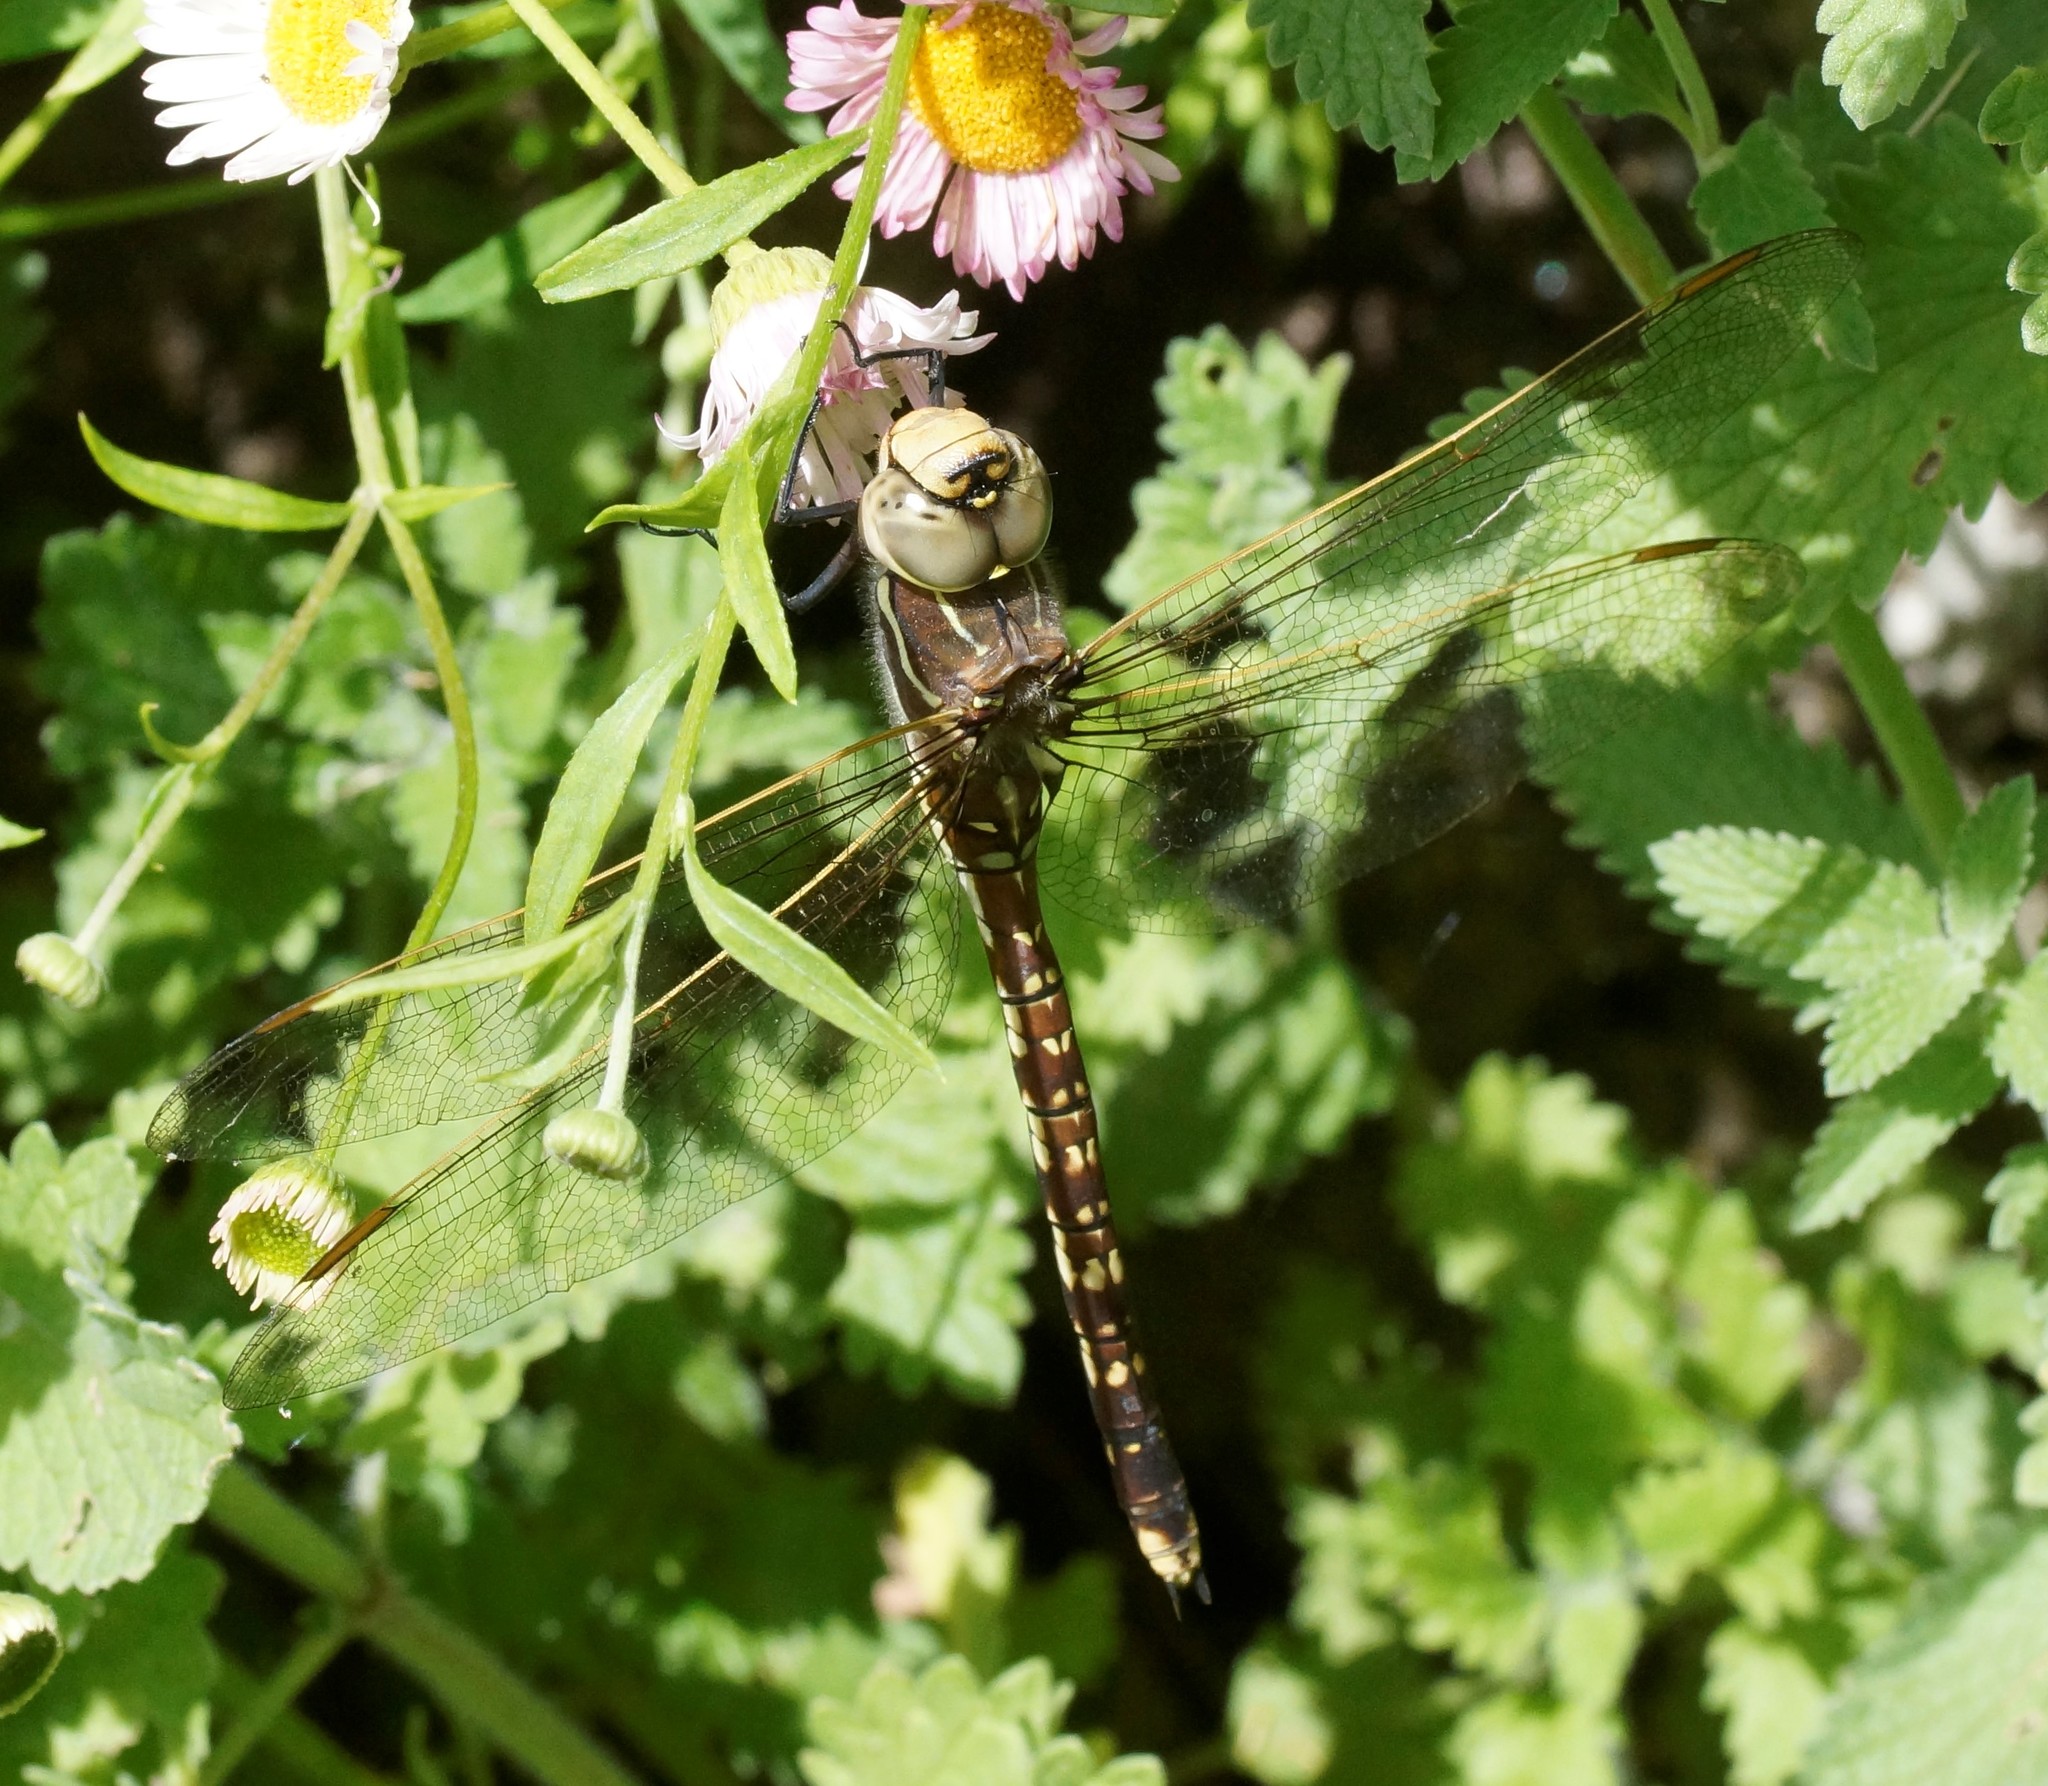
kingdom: Animalia
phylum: Arthropoda
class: Insecta
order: Odonata
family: Aeshnidae
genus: Aeshna
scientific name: Aeshna brevistyla
